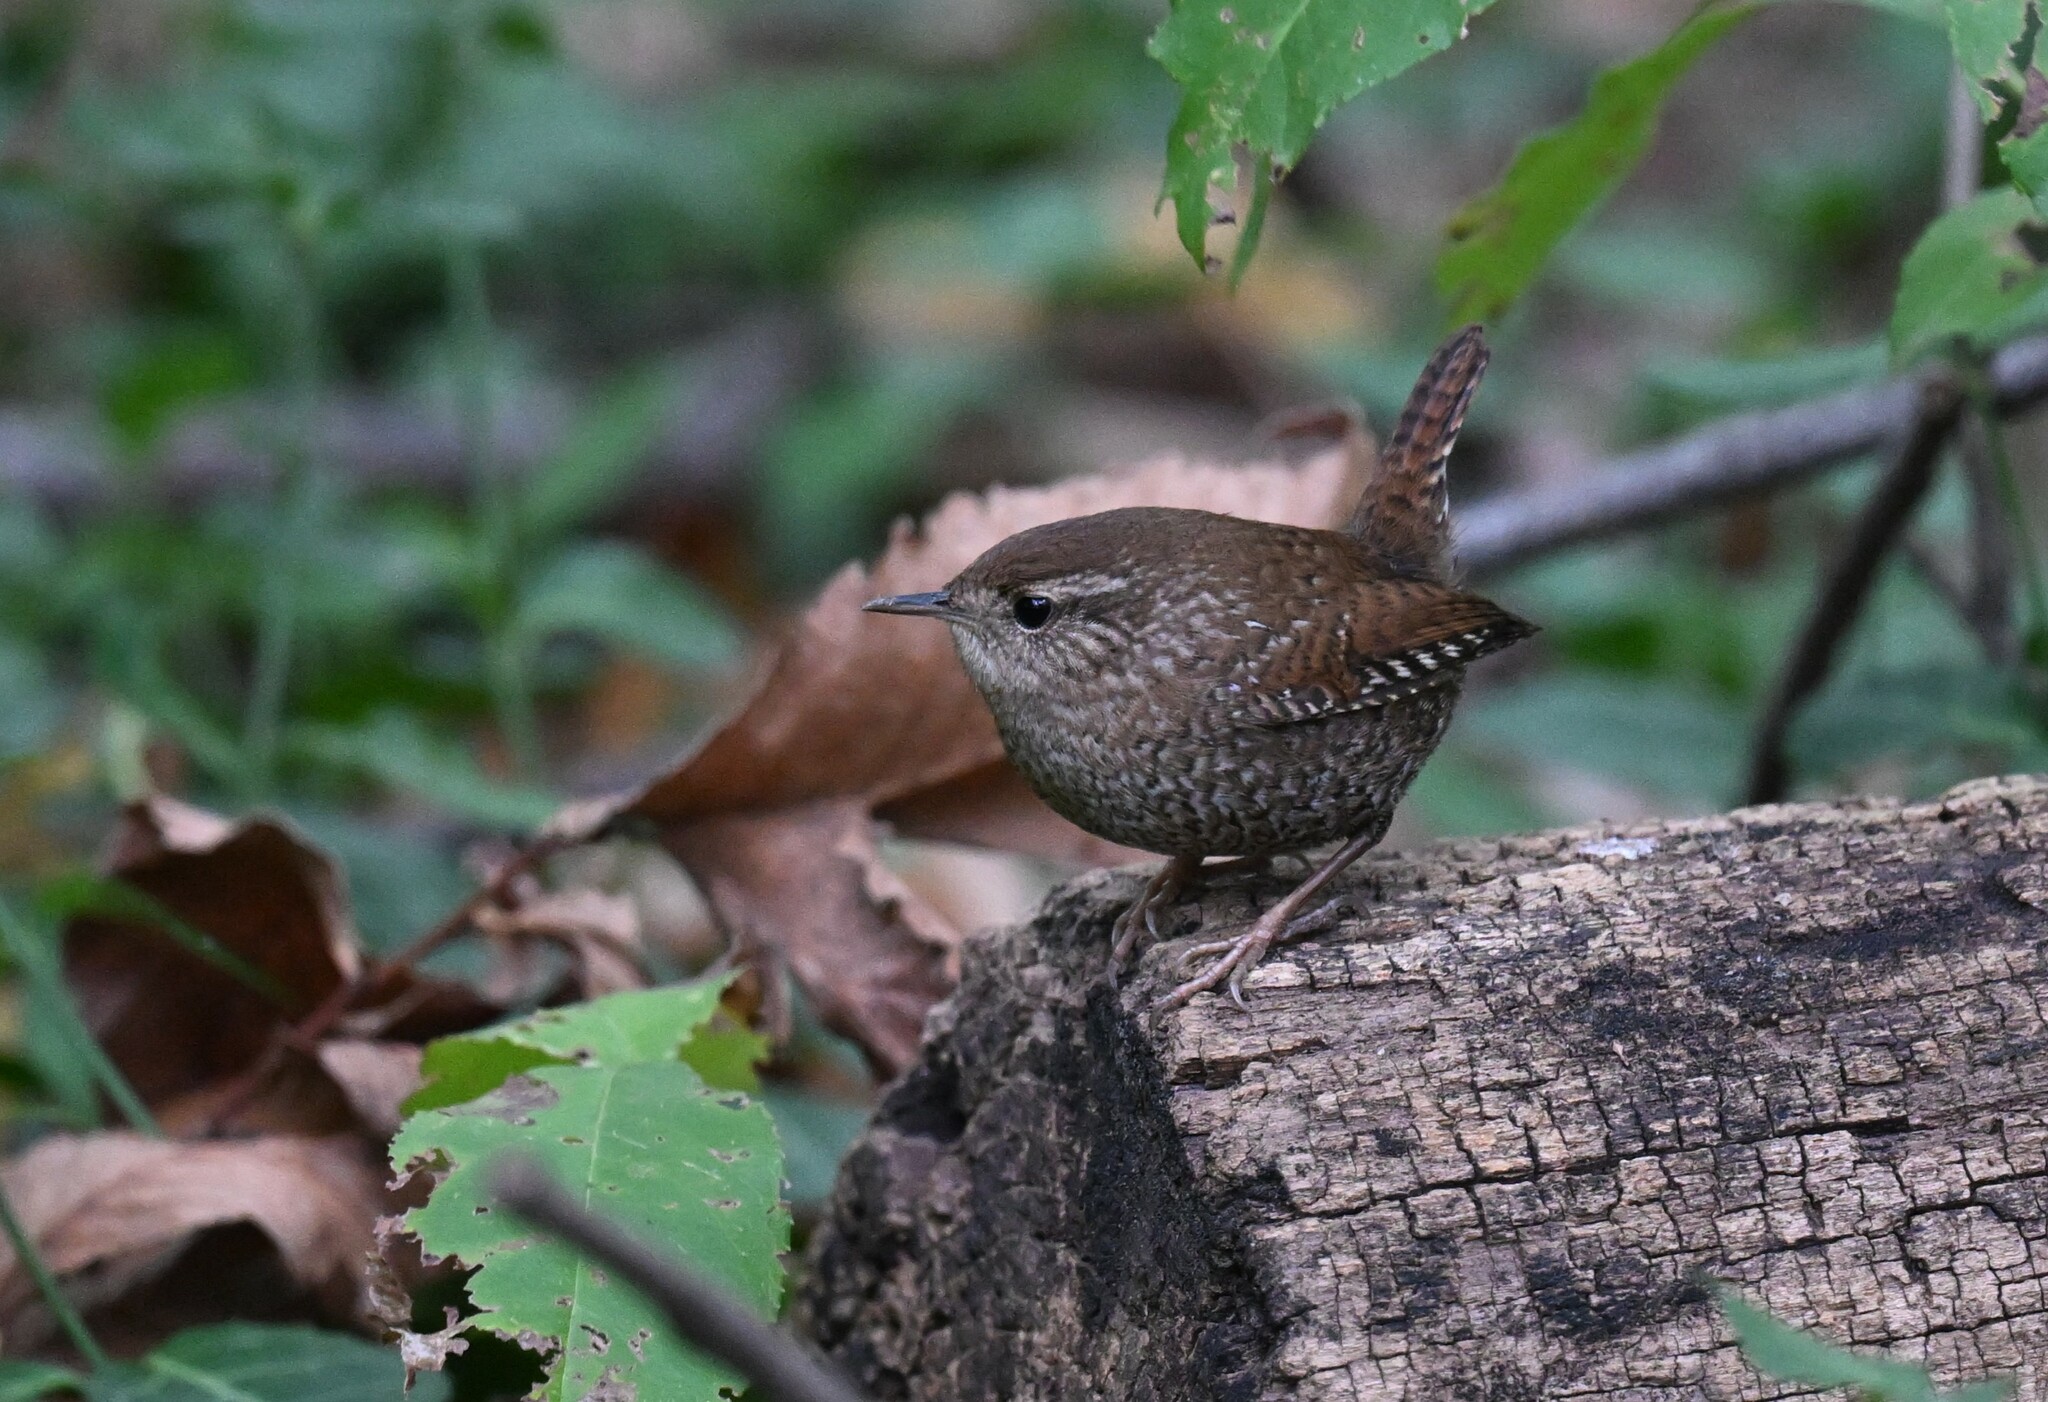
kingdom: Animalia
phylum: Chordata
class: Aves
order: Passeriformes
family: Troglodytidae
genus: Troglodytes
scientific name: Troglodytes hiemalis
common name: Winter wren
